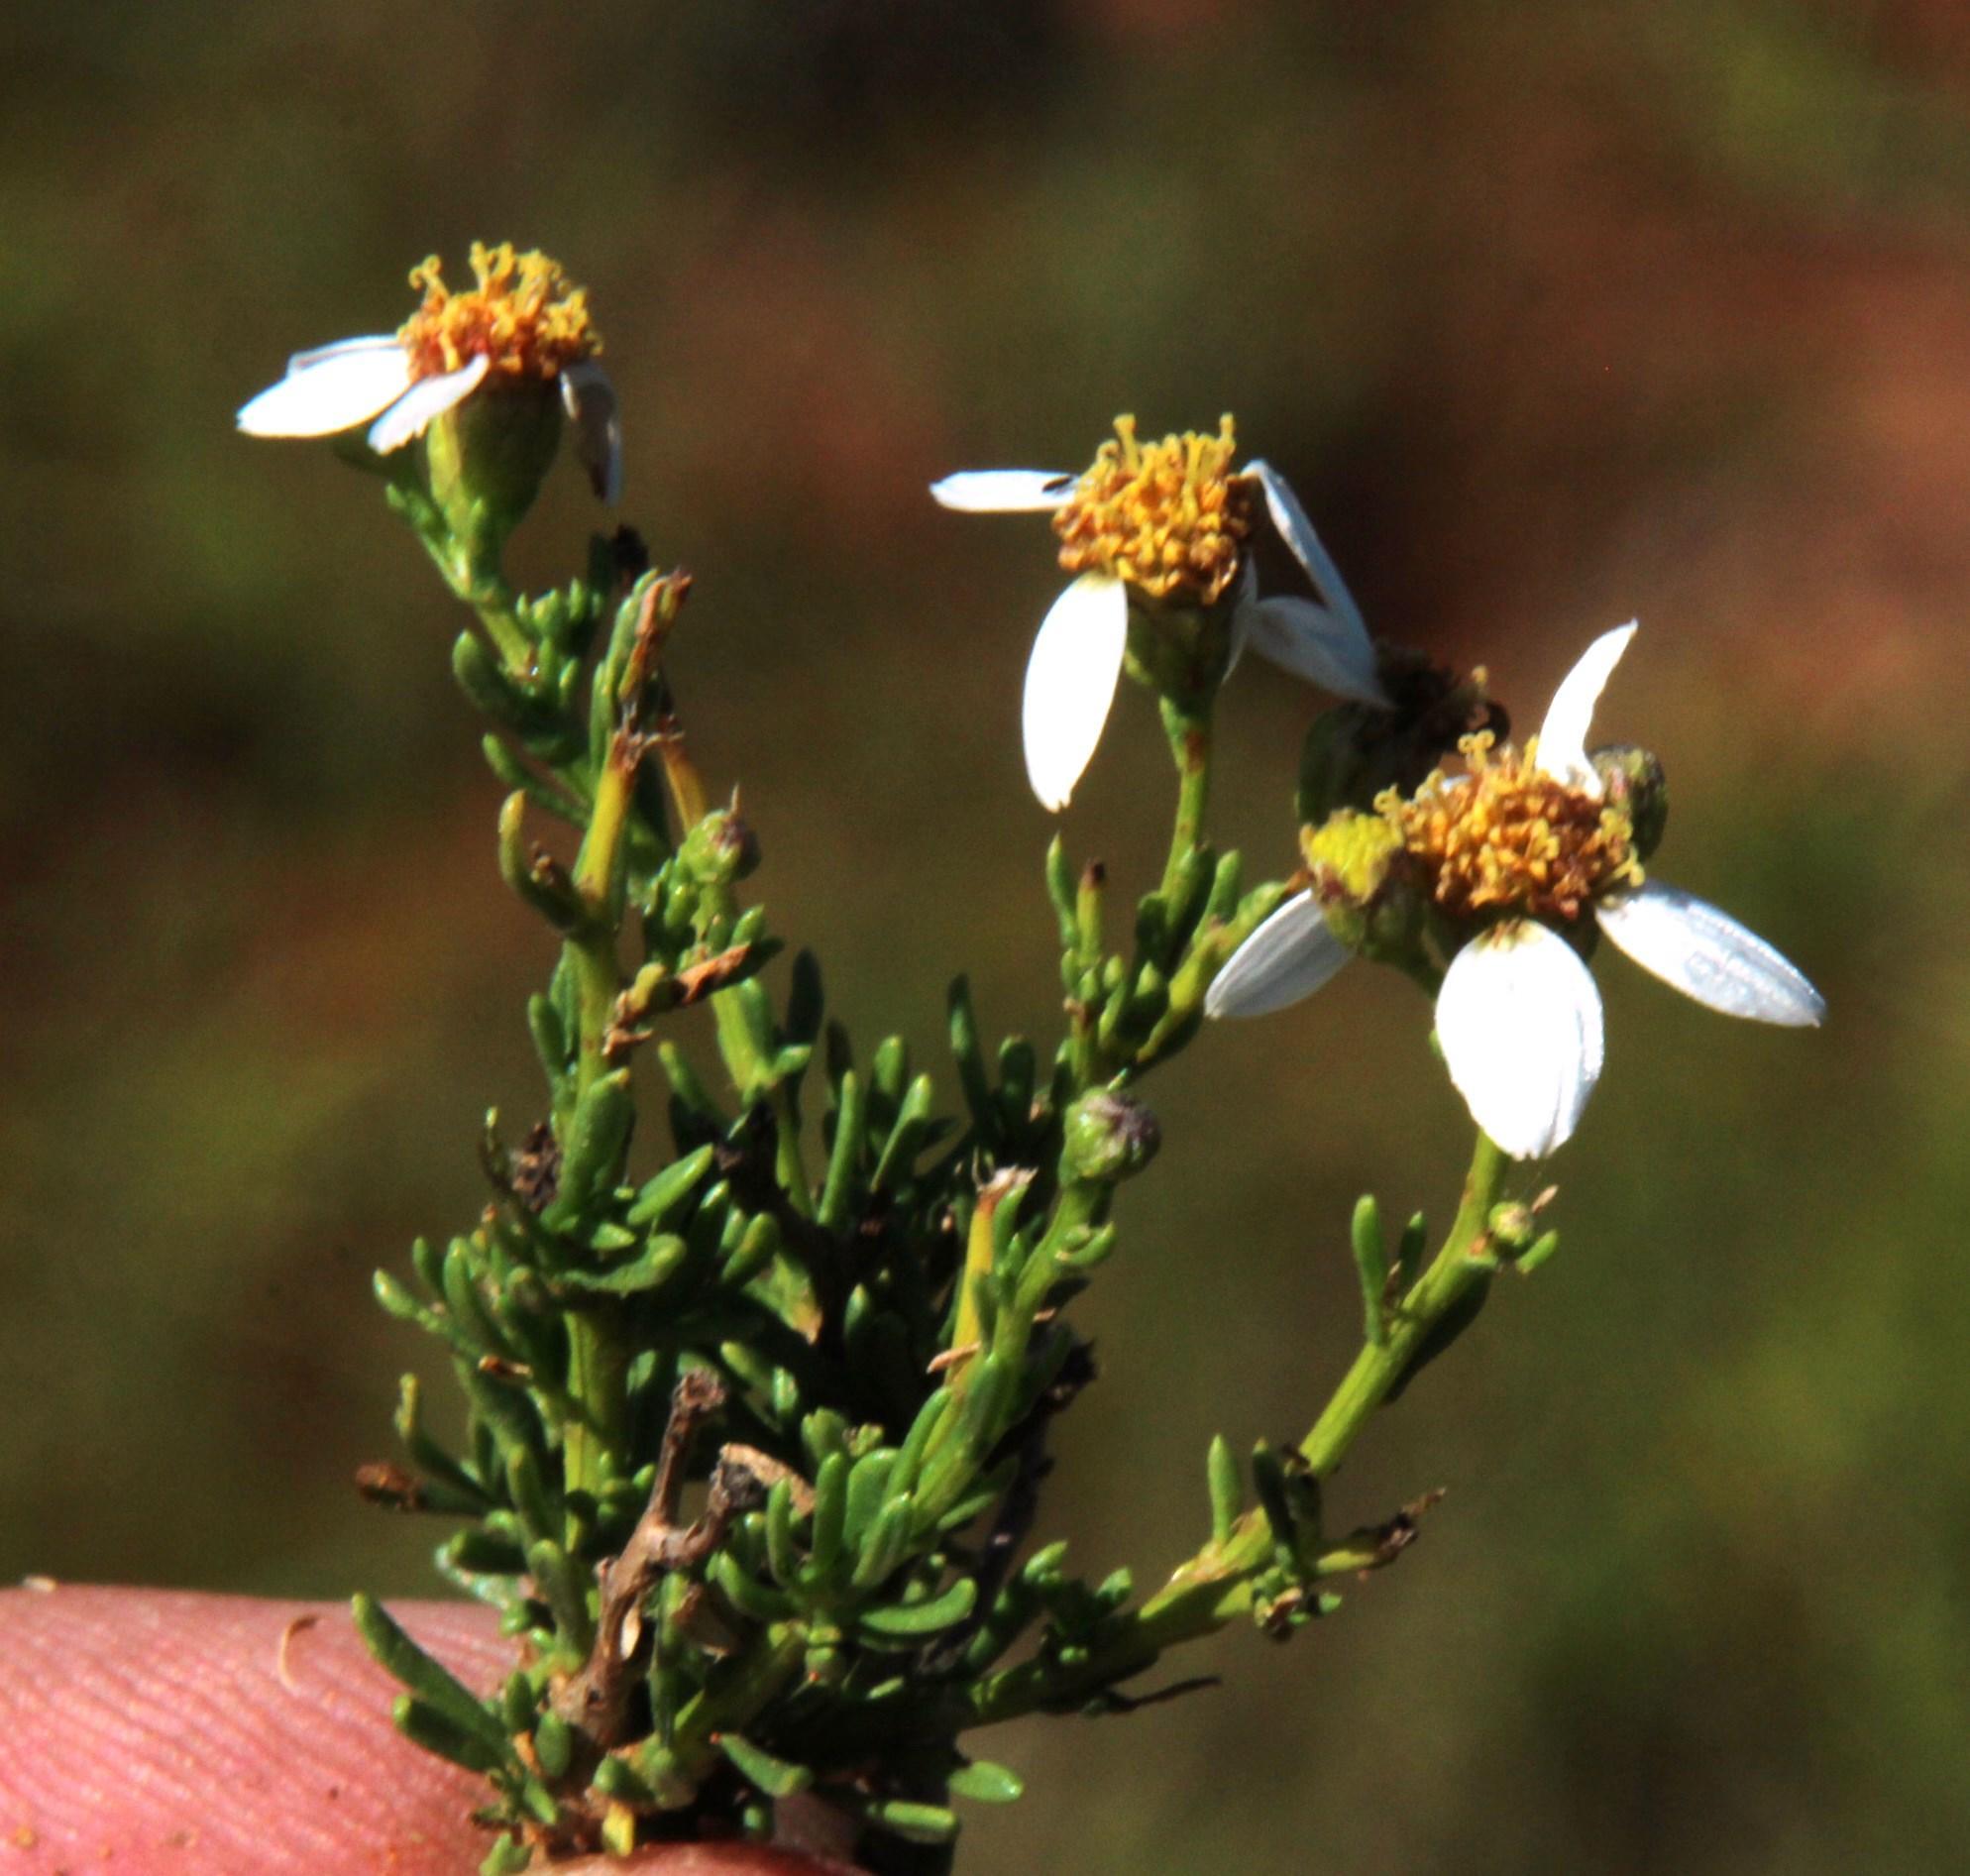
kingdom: Plantae
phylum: Tracheophyta
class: Magnoliopsida
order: Asterales
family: Asteraceae
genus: Phymaspermum
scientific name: Phymaspermum parvifolium
